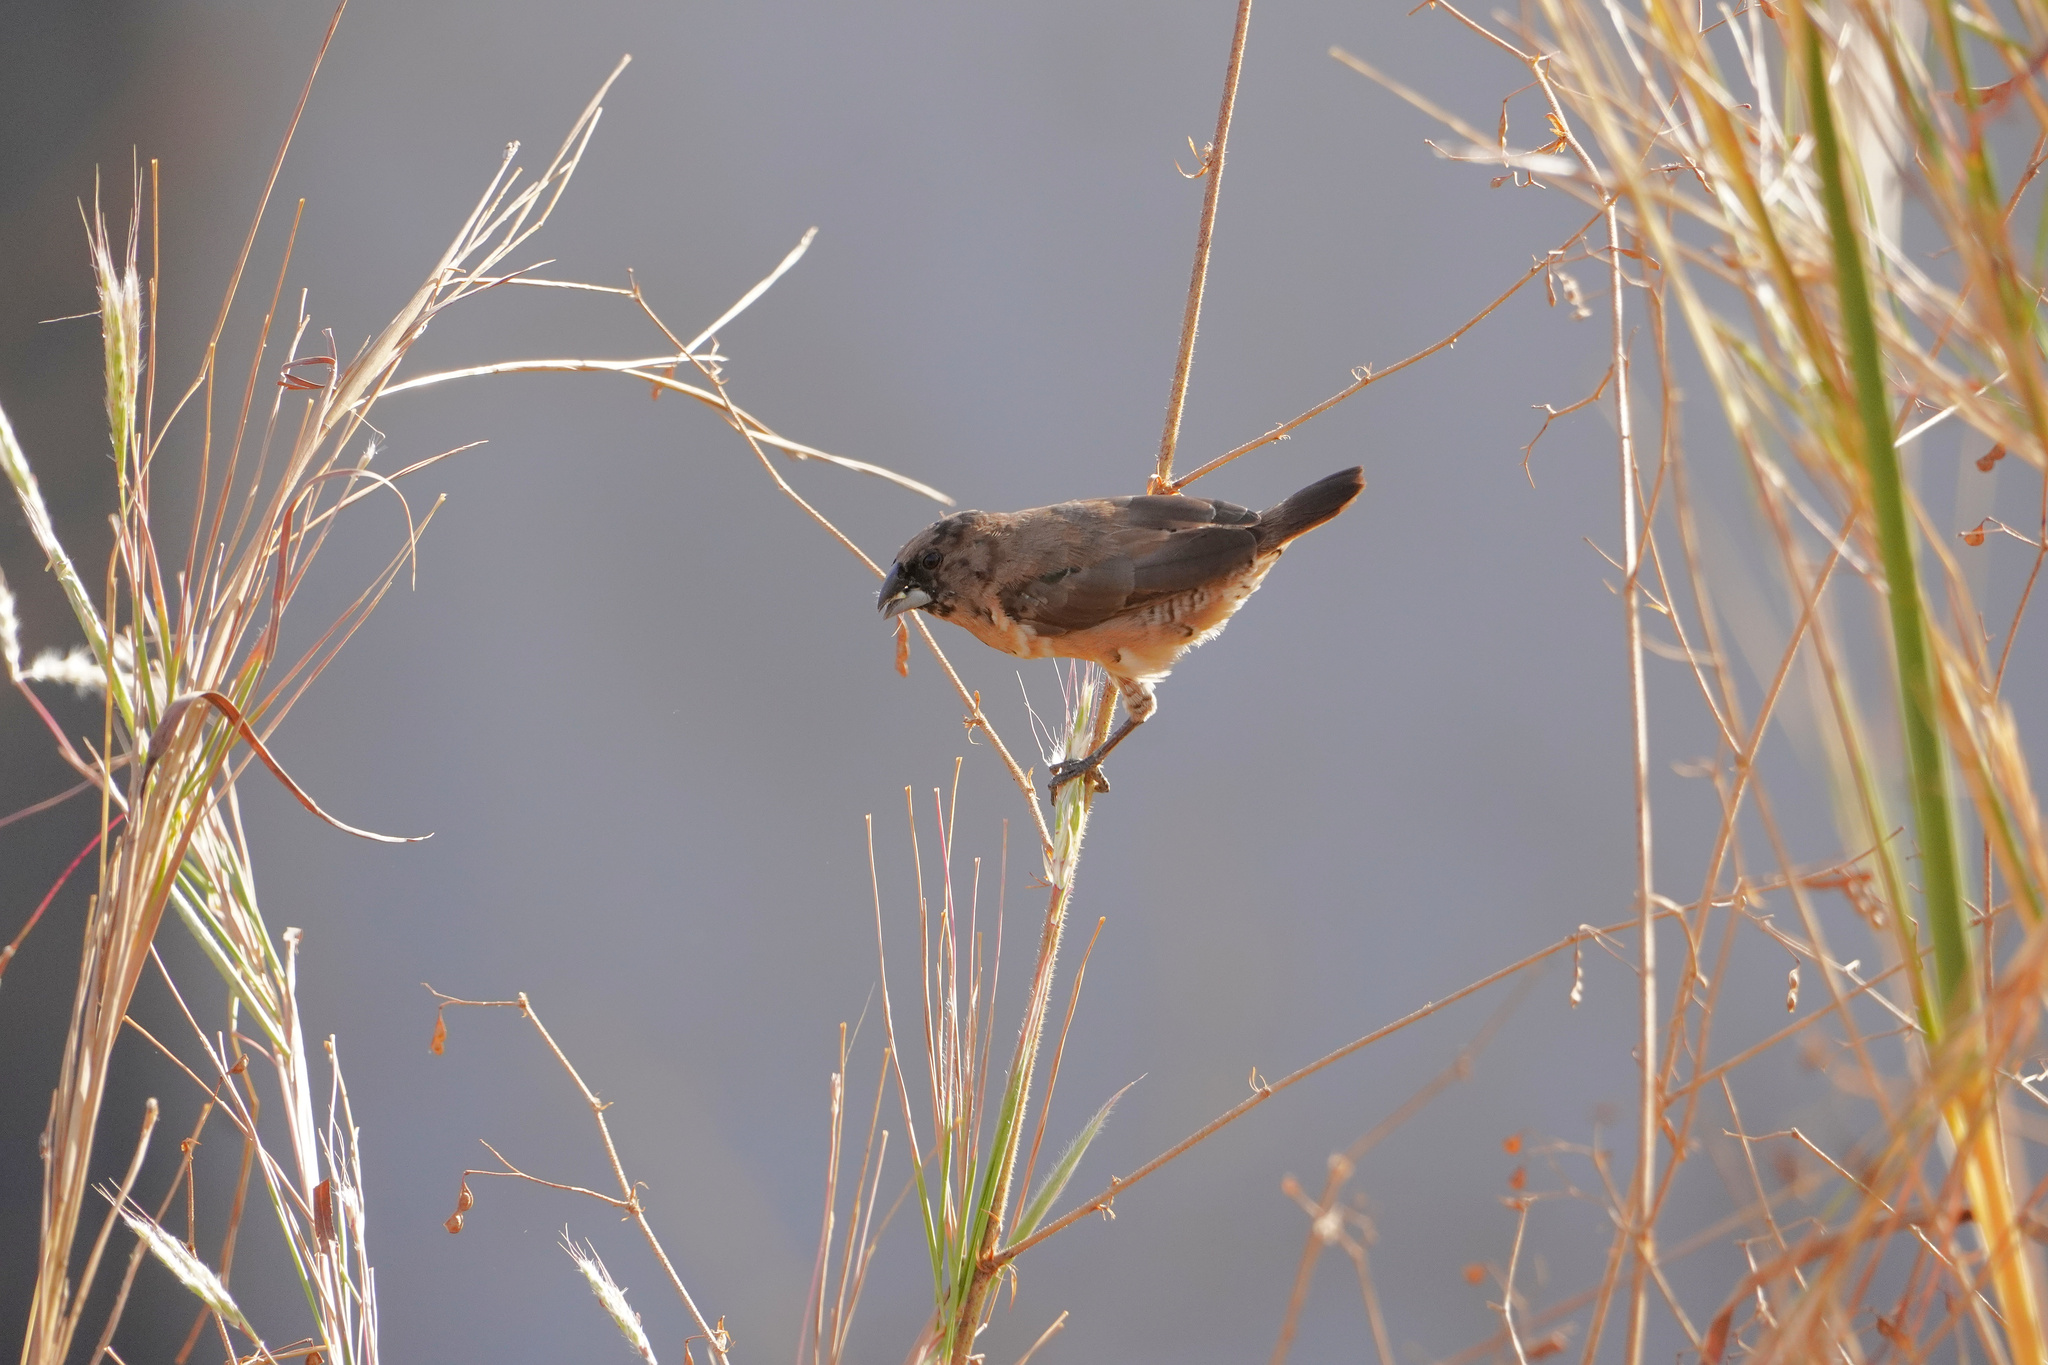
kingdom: Animalia
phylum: Chordata
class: Aves
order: Passeriformes
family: Estrildidae
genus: Lonchura
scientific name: Lonchura cucullata
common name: Bronze mannikin
